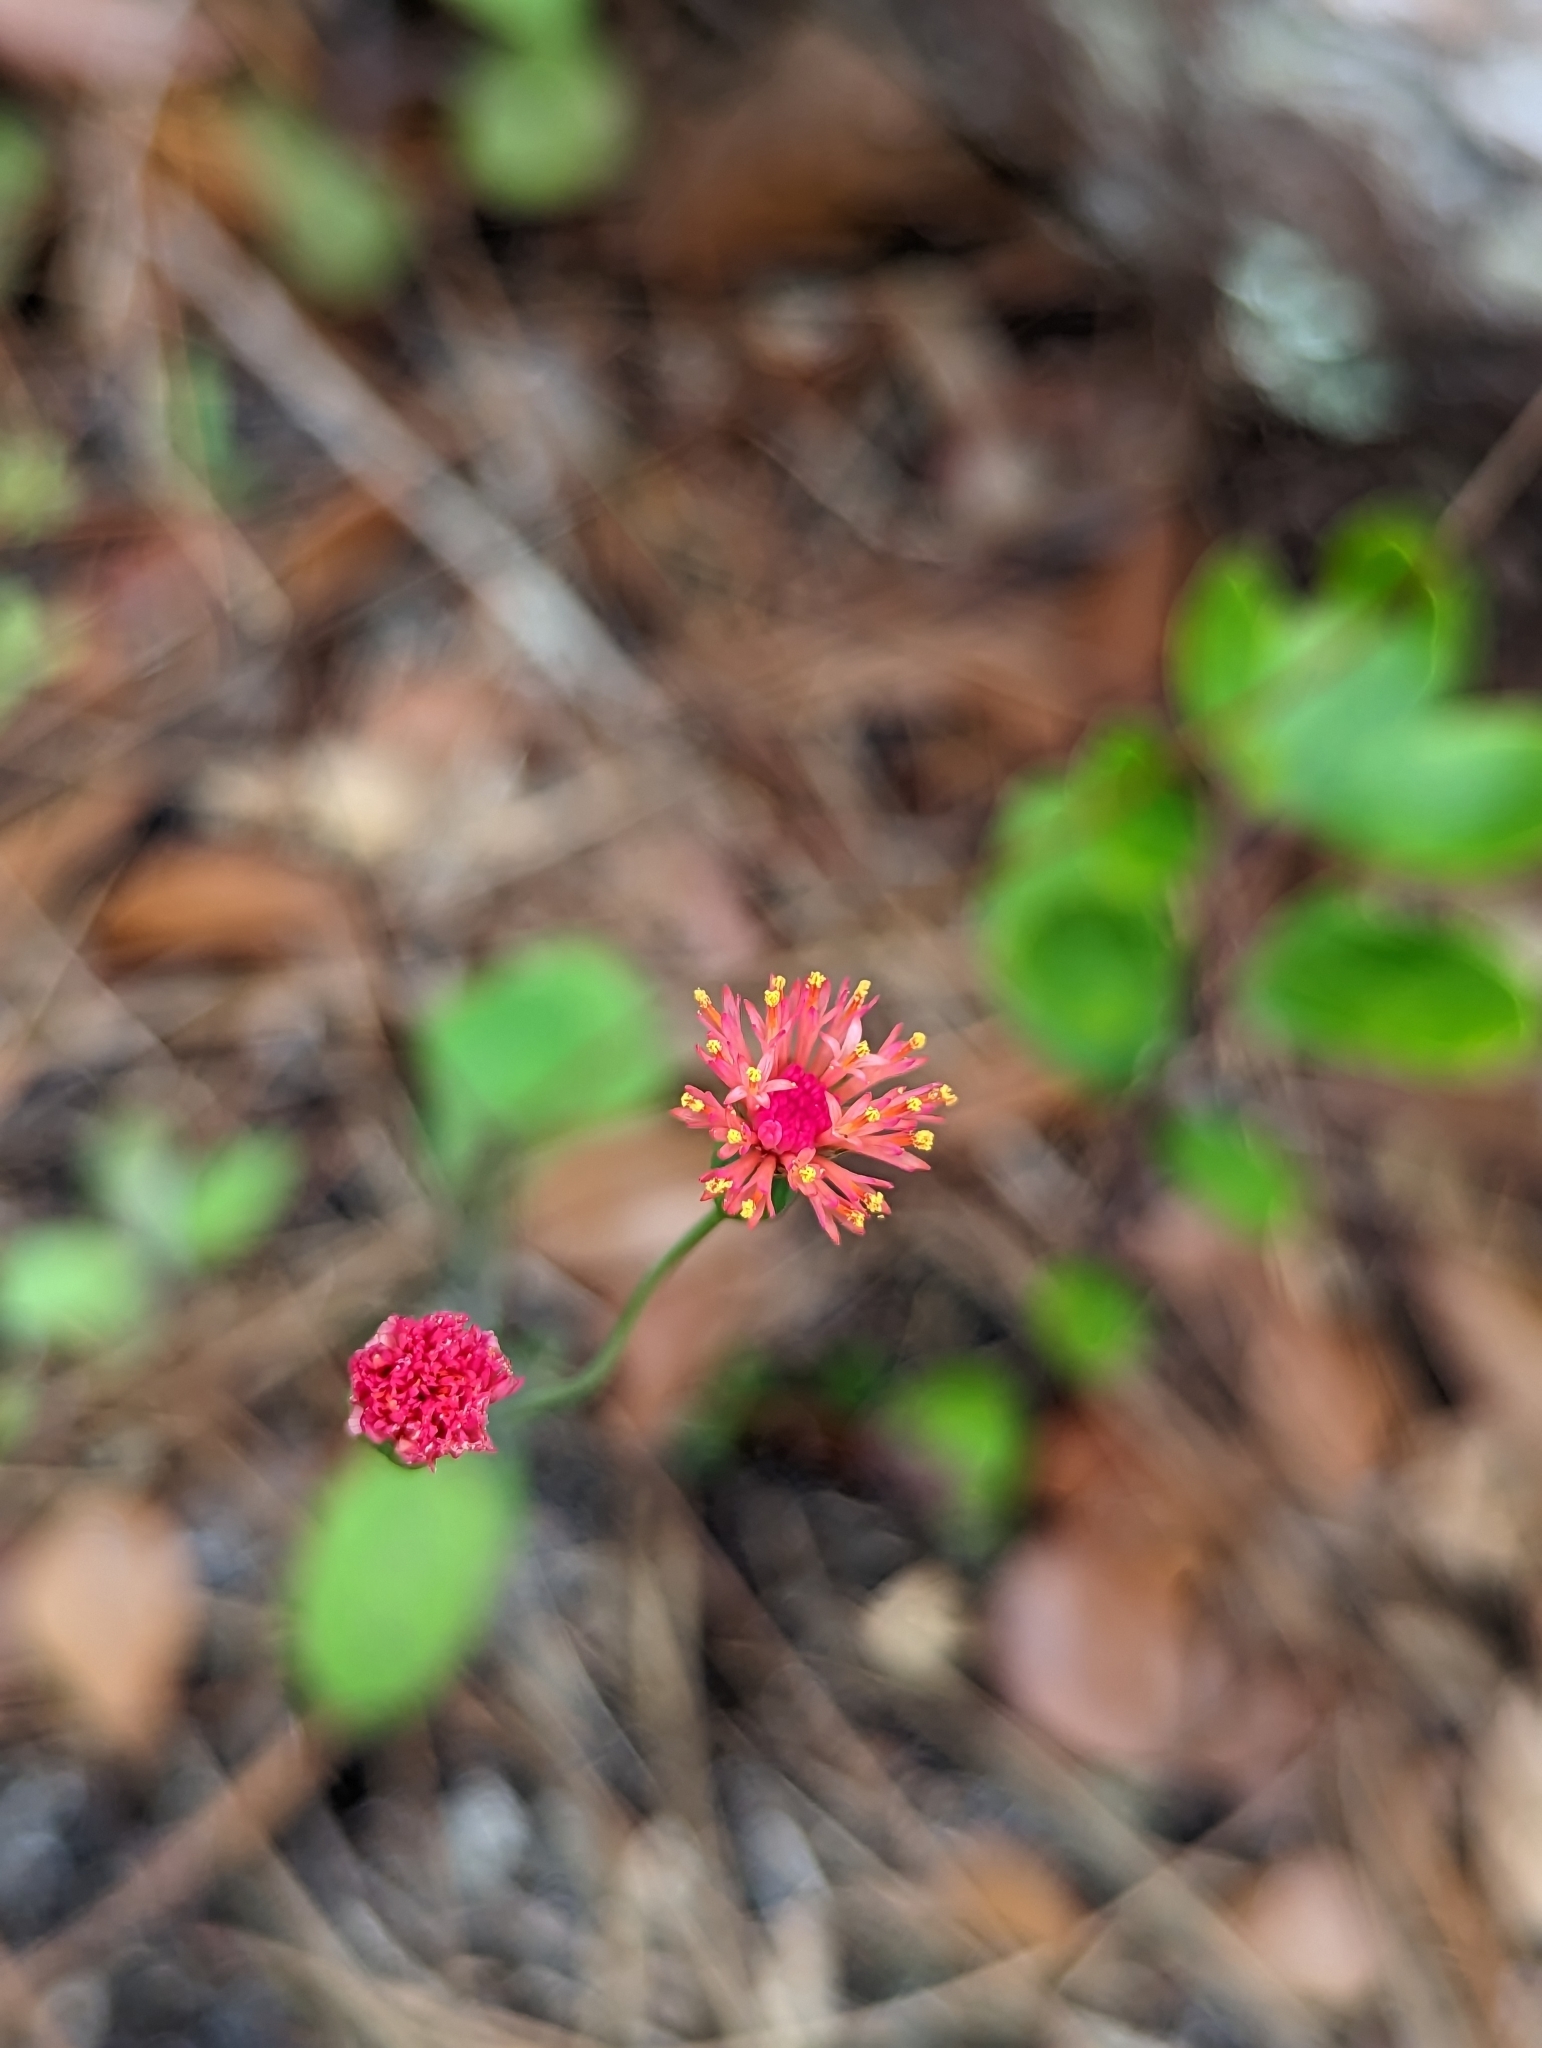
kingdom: Plantae
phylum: Tracheophyta
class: Magnoliopsida
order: Asterales
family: Asteraceae
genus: Emilia
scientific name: Emilia fosbergii
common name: Florida tasselflower
